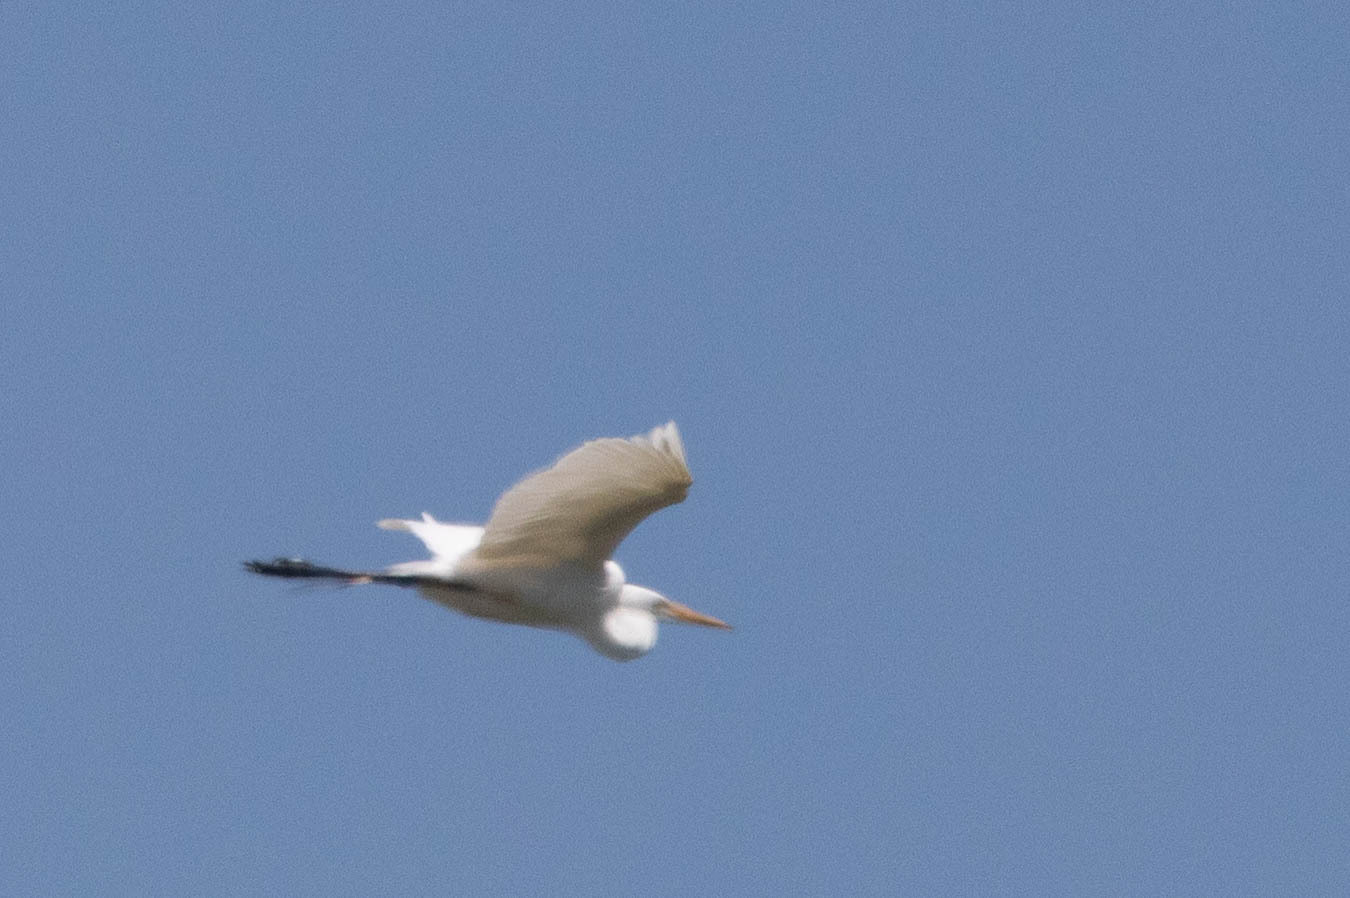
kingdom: Animalia
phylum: Chordata
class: Aves
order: Pelecaniformes
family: Ardeidae
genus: Ardea
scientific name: Ardea alba
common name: Great egret
